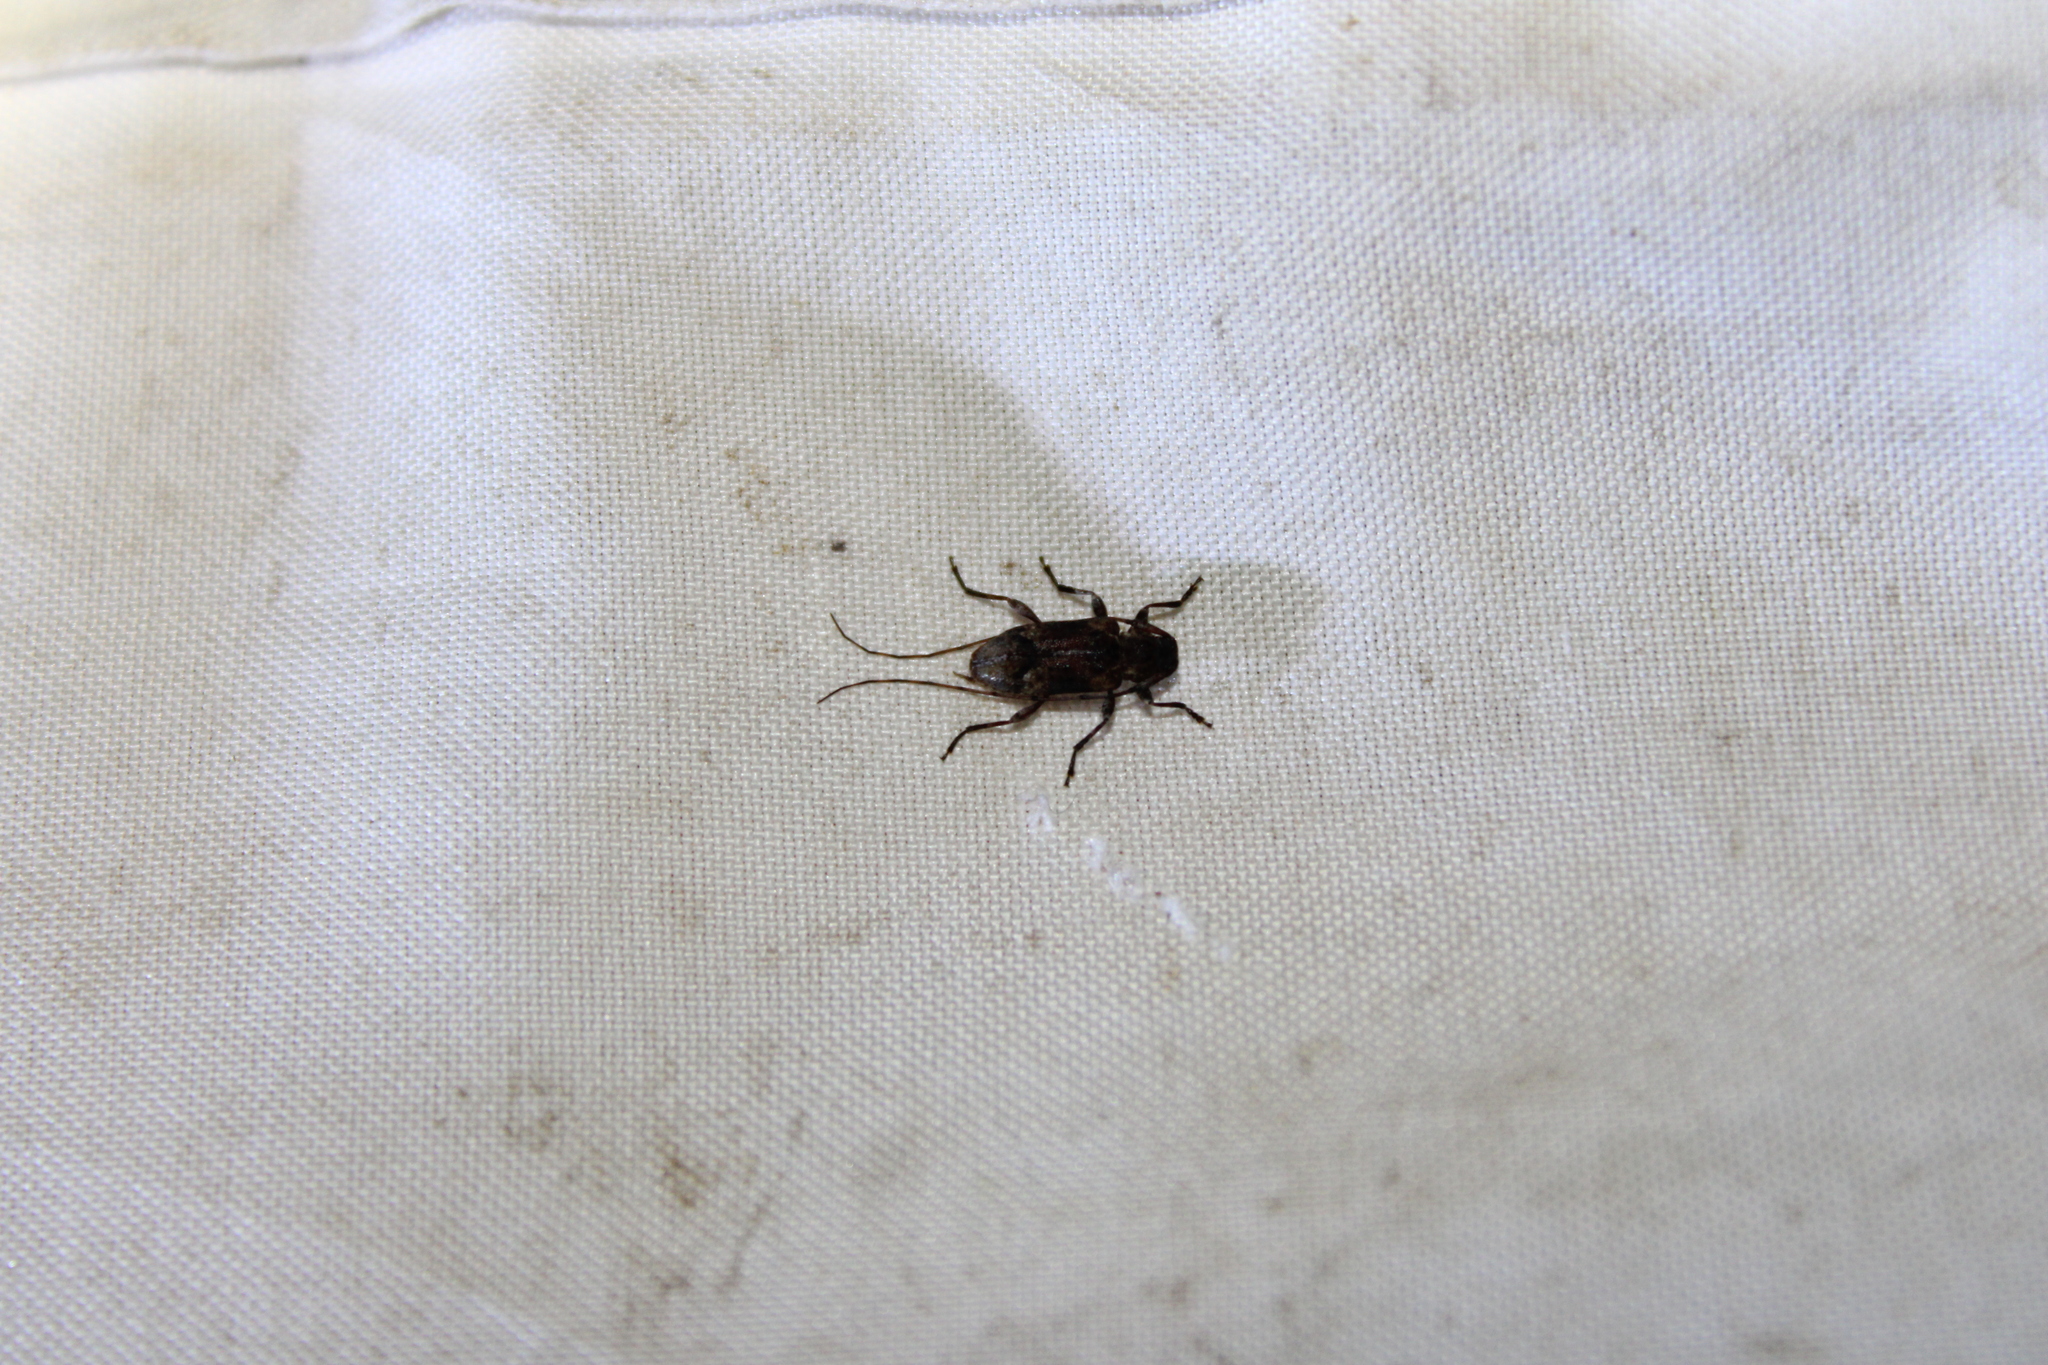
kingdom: Animalia
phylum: Arthropoda
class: Insecta
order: Coleoptera
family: Cerambycidae
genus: Sternidius
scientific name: Sternidius alpha
